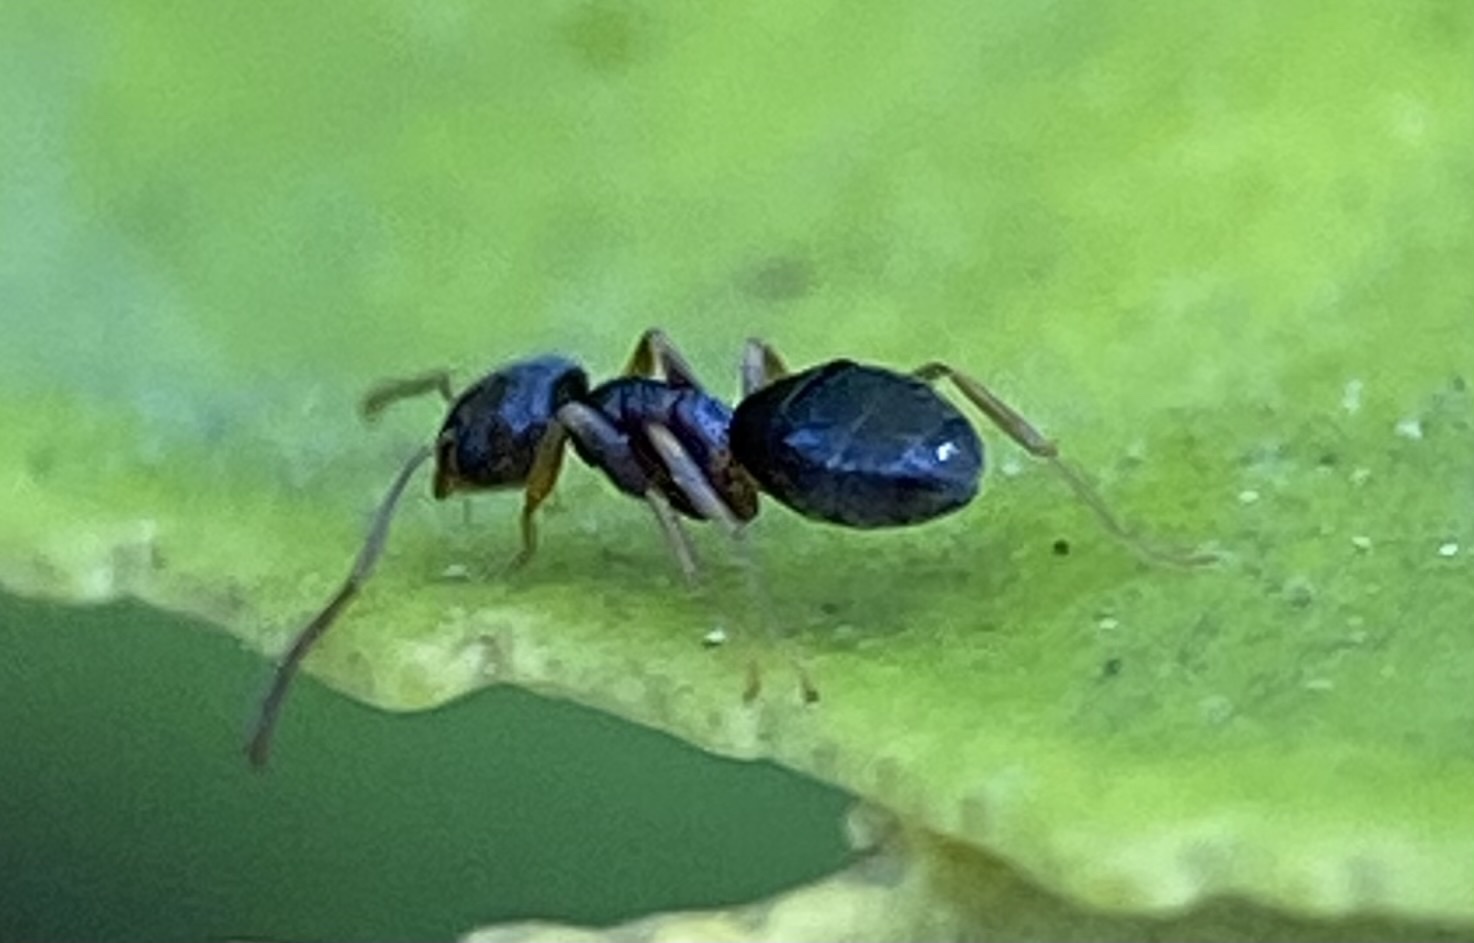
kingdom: Animalia
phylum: Arthropoda
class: Insecta
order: Hymenoptera
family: Formicidae
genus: Tapinoma
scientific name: Tapinoma sessile
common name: Odorous house ant
